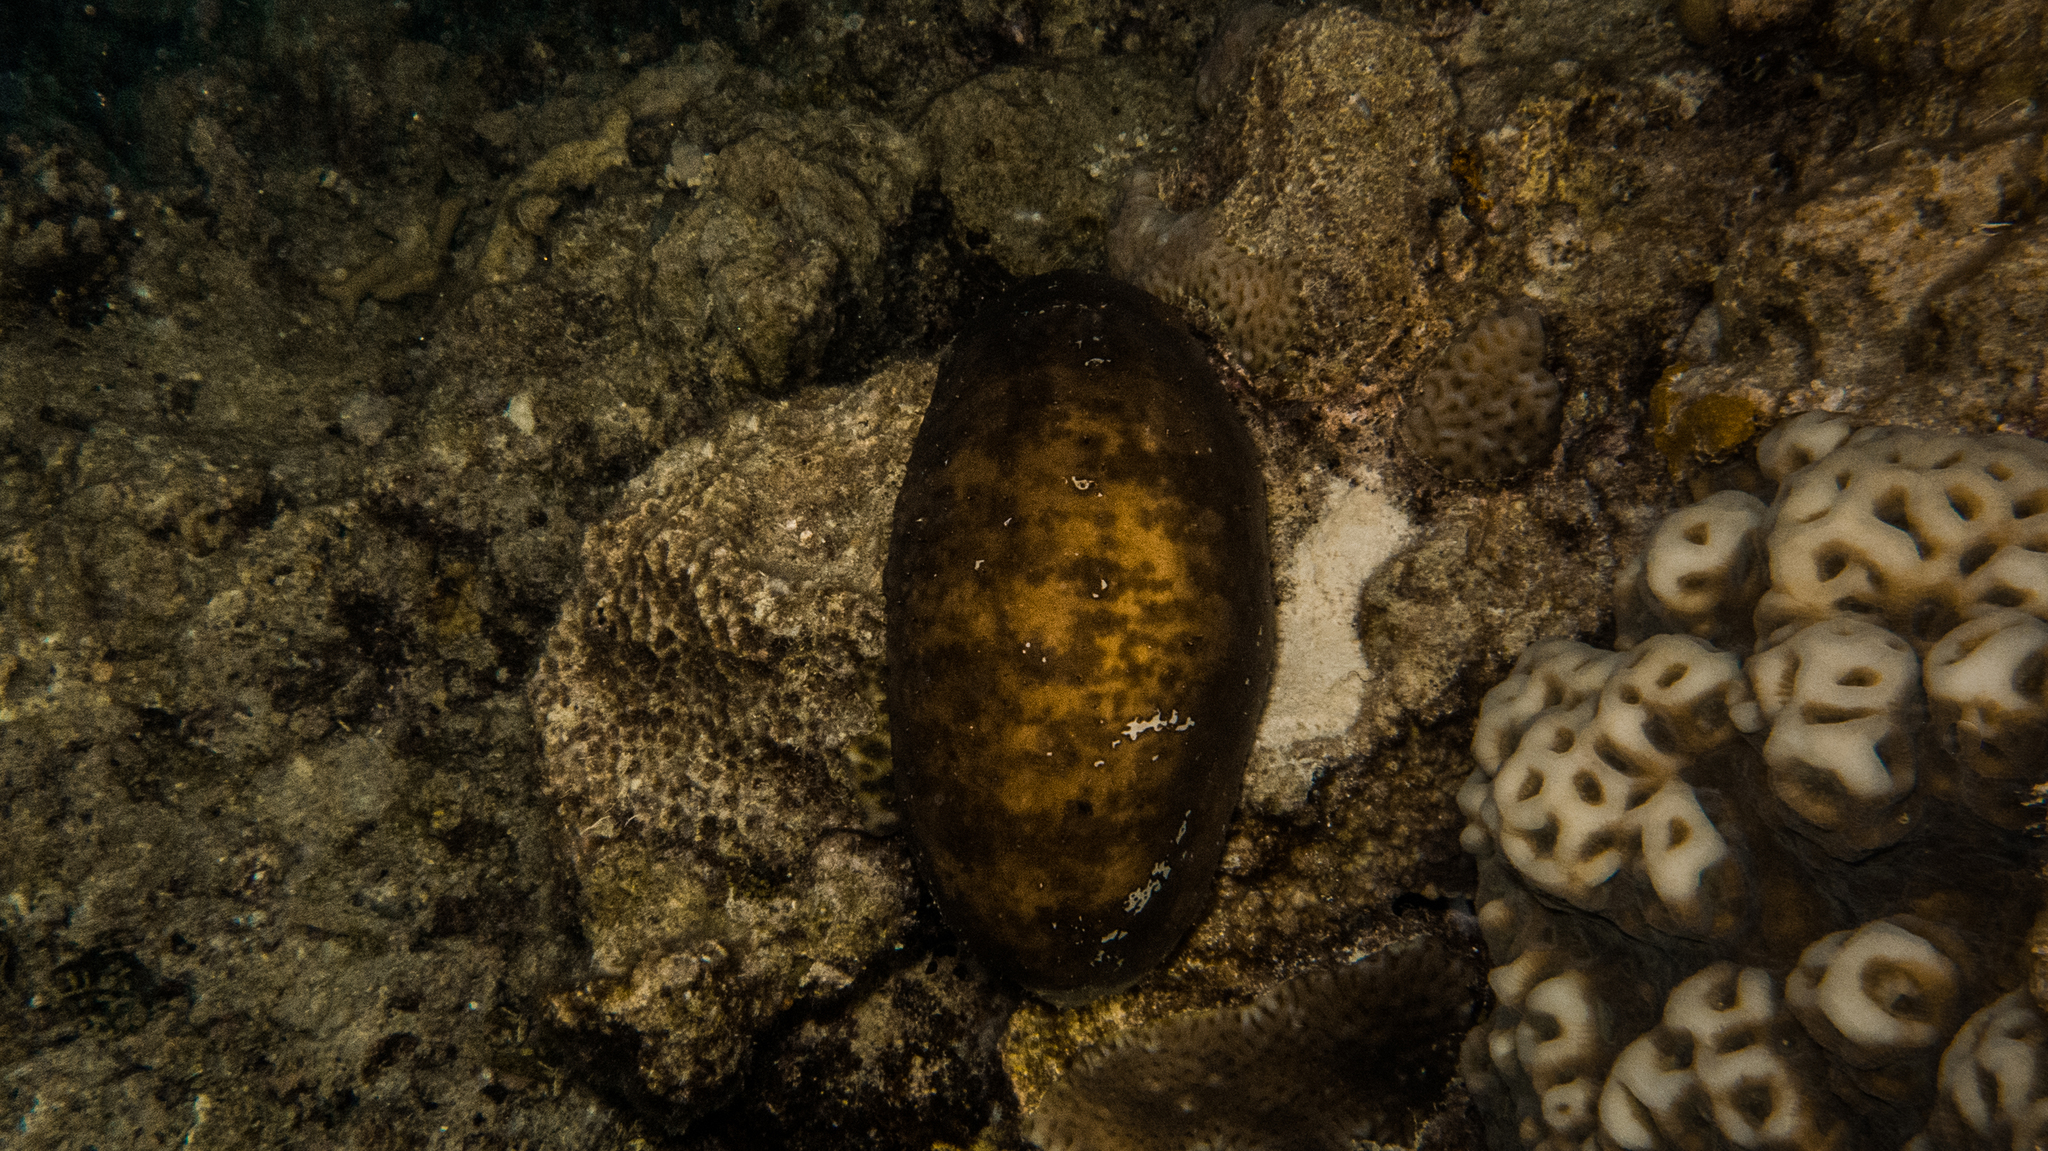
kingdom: Animalia
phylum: Echinodermata
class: Holothuroidea
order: Holothuriida
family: Holothuriidae
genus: Actinopyga
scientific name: Actinopyga lecanora
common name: Stonefish
